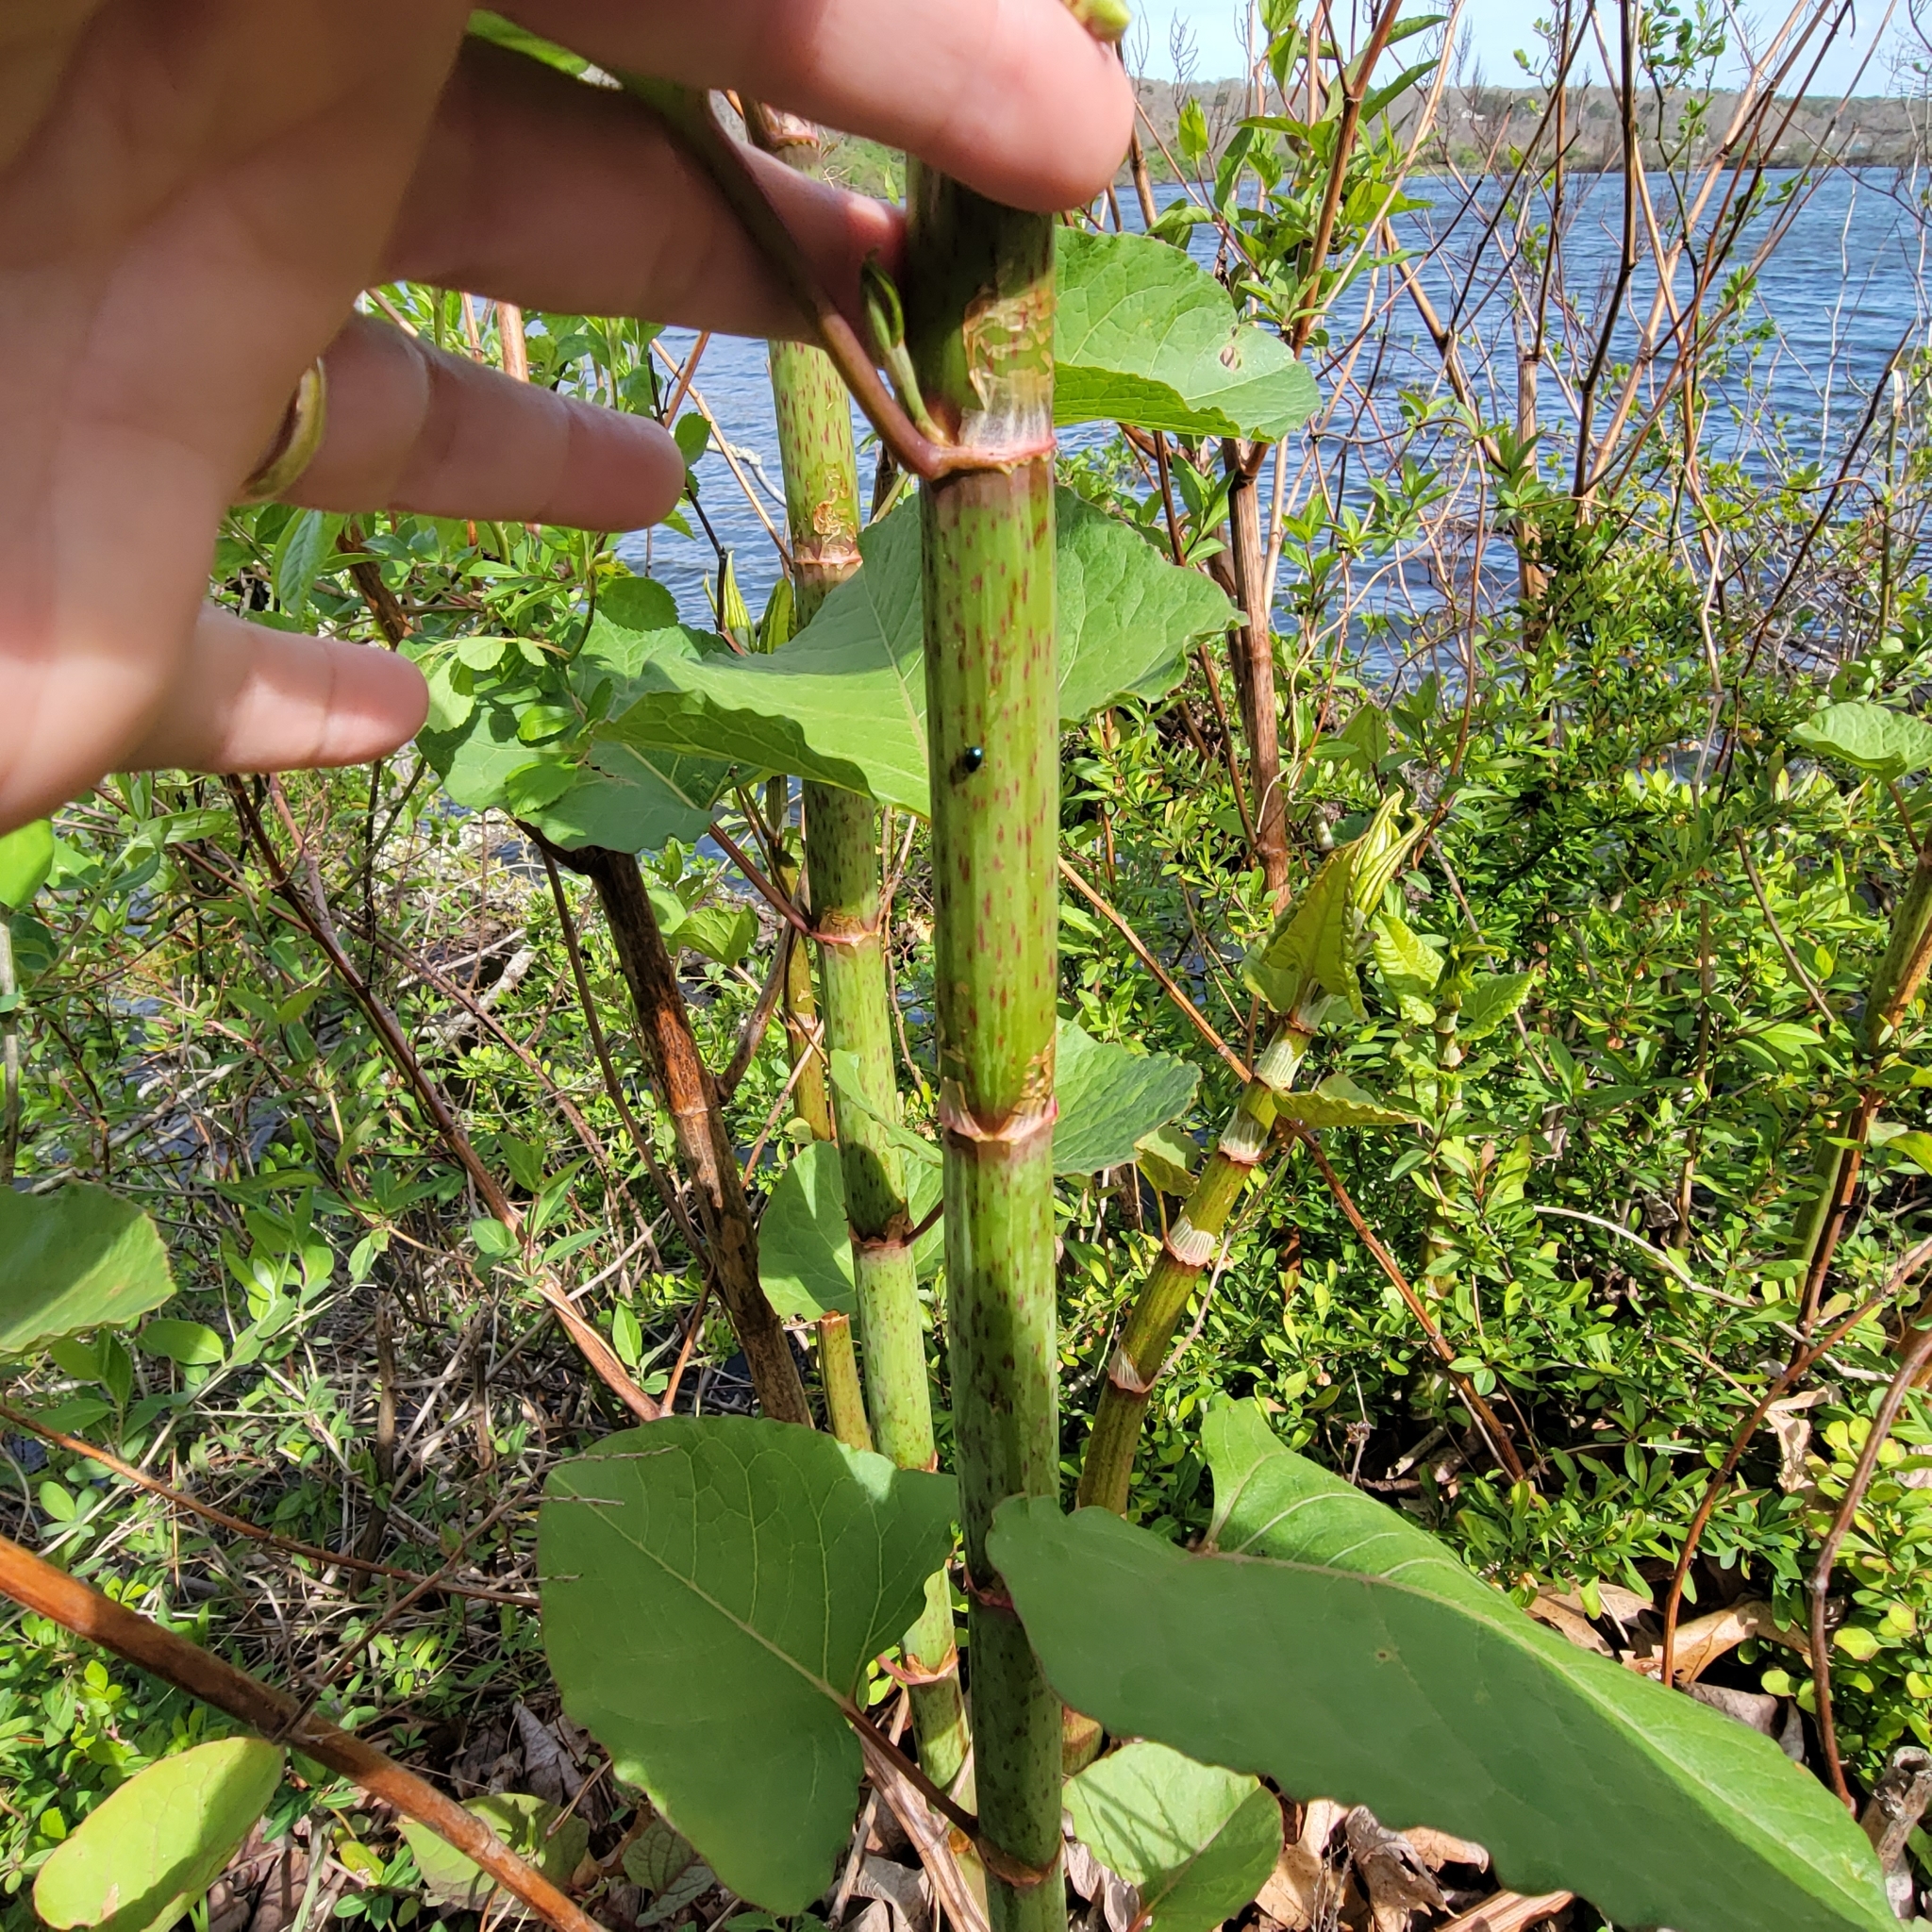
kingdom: Plantae
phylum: Tracheophyta
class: Magnoliopsida
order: Caryophyllales
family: Polygonaceae
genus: Reynoutria
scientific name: Reynoutria japonica
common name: Japanese knotweed
